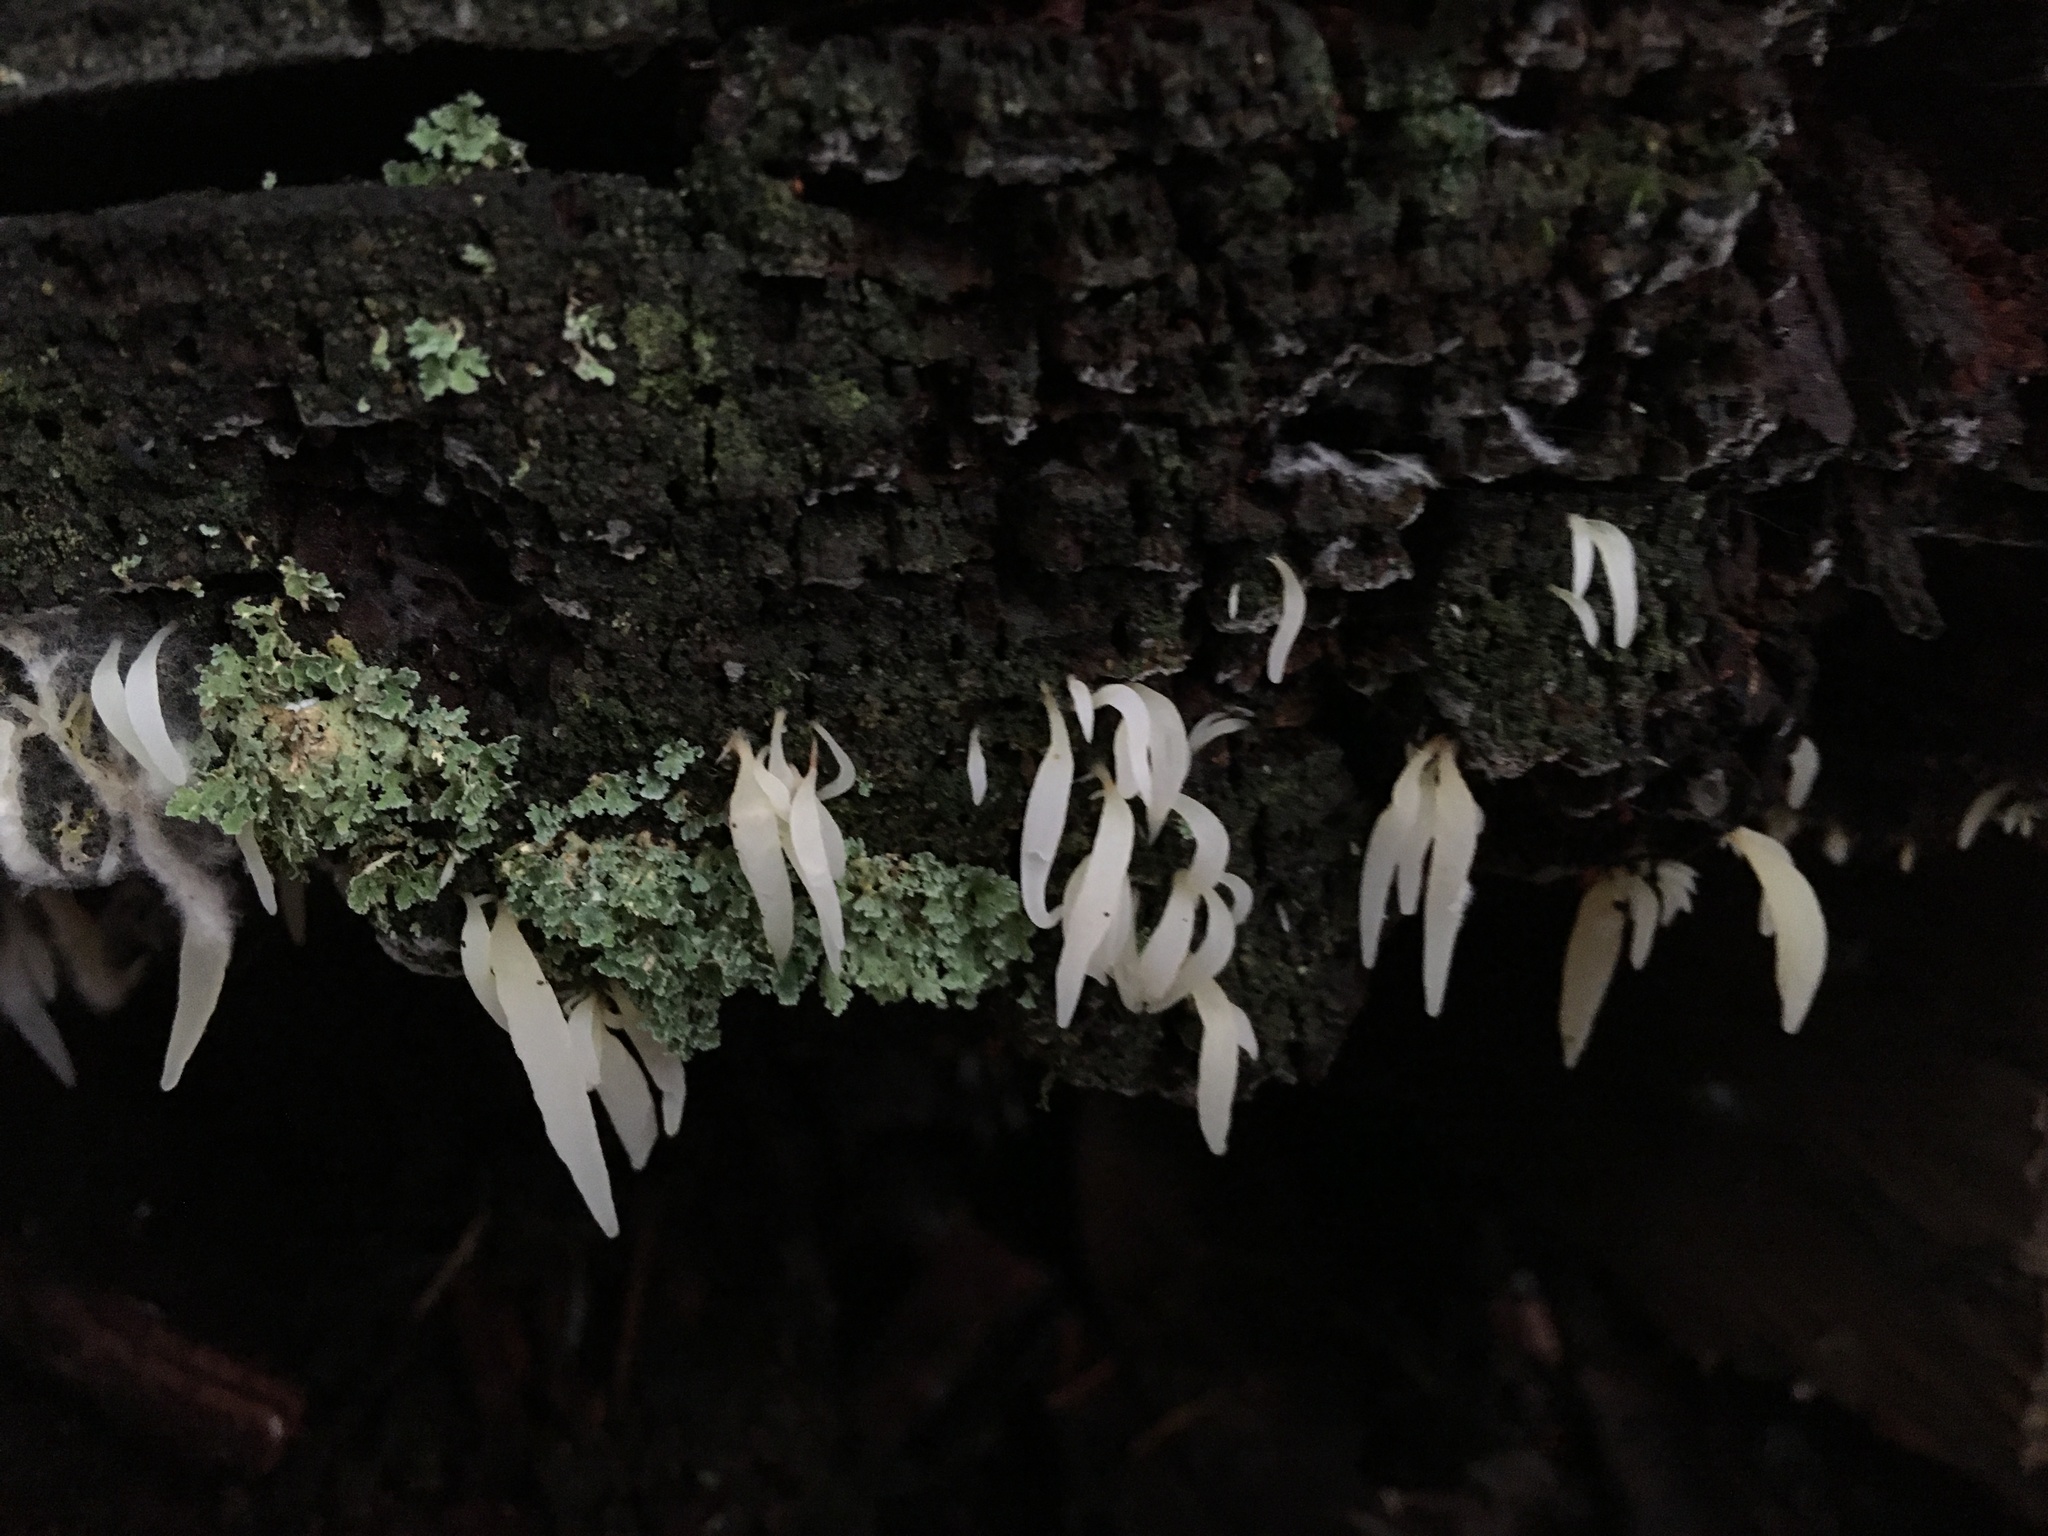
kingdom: Fungi
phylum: Basidiomycota
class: Agaricomycetes
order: Agaricales
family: Clavariaceae
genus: Mucronella
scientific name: Mucronella fusiformis
